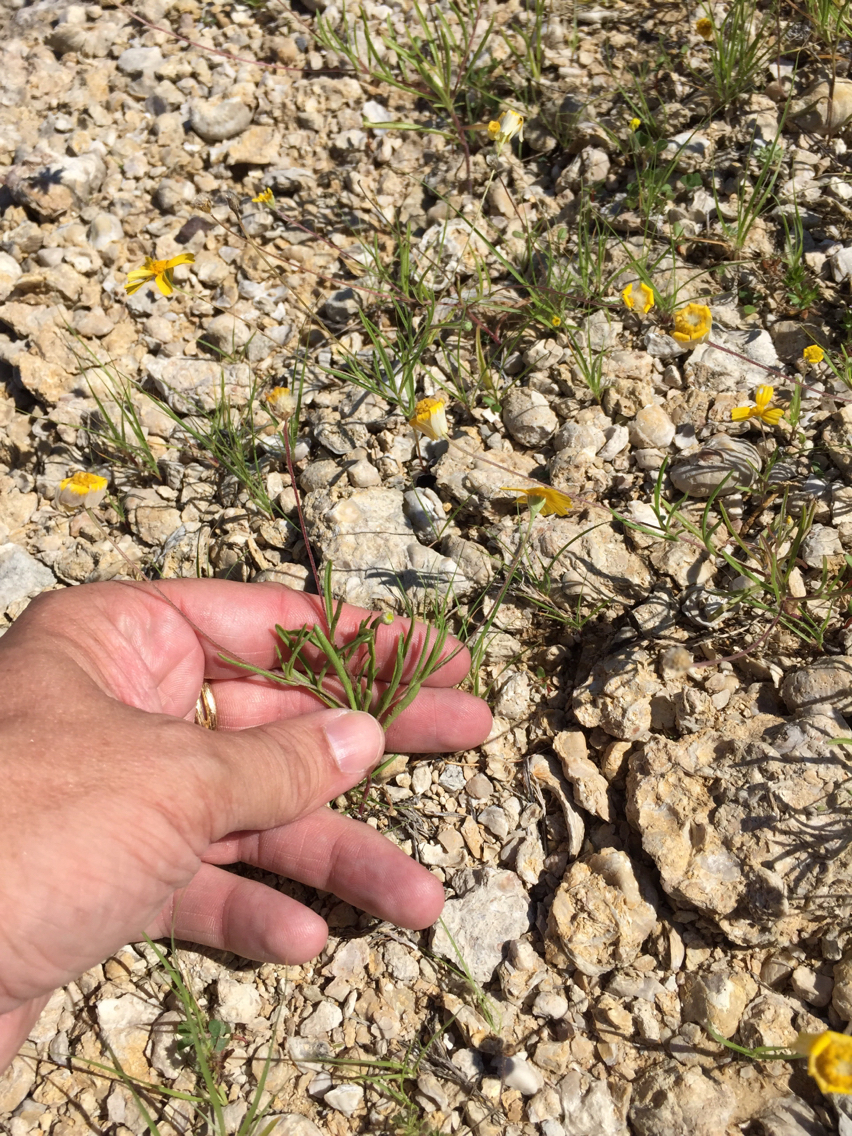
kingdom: Plantae
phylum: Tracheophyta
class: Magnoliopsida
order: Asterales
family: Asteraceae
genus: Tetraneuris
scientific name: Tetraneuris linearifolia
